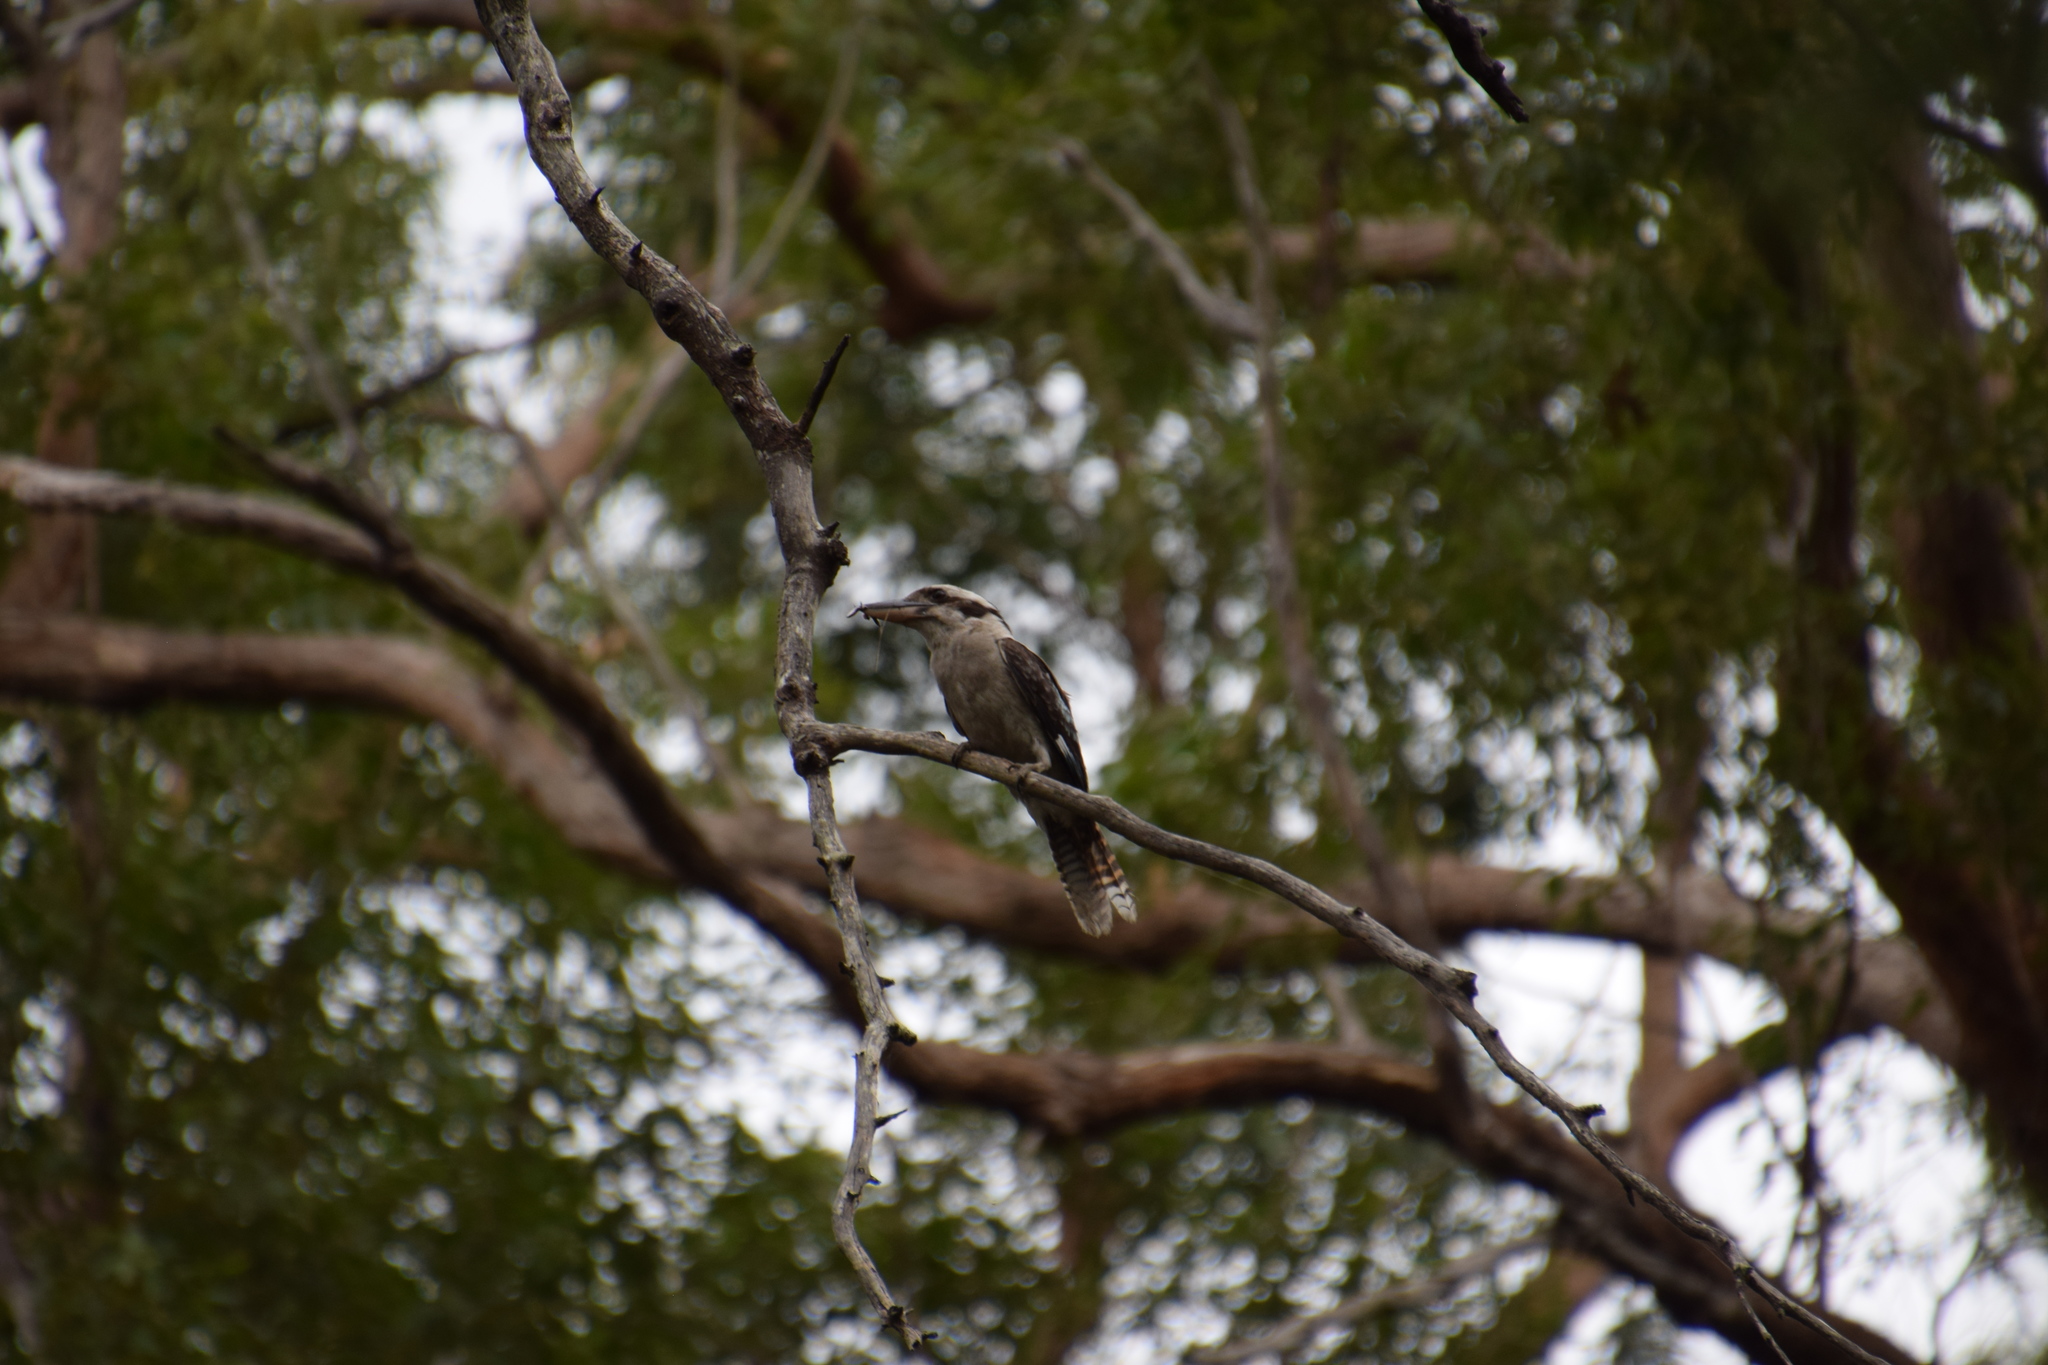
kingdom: Animalia
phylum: Chordata
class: Aves
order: Coraciiformes
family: Alcedinidae
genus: Dacelo
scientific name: Dacelo novaeguineae
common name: Laughing kookaburra
